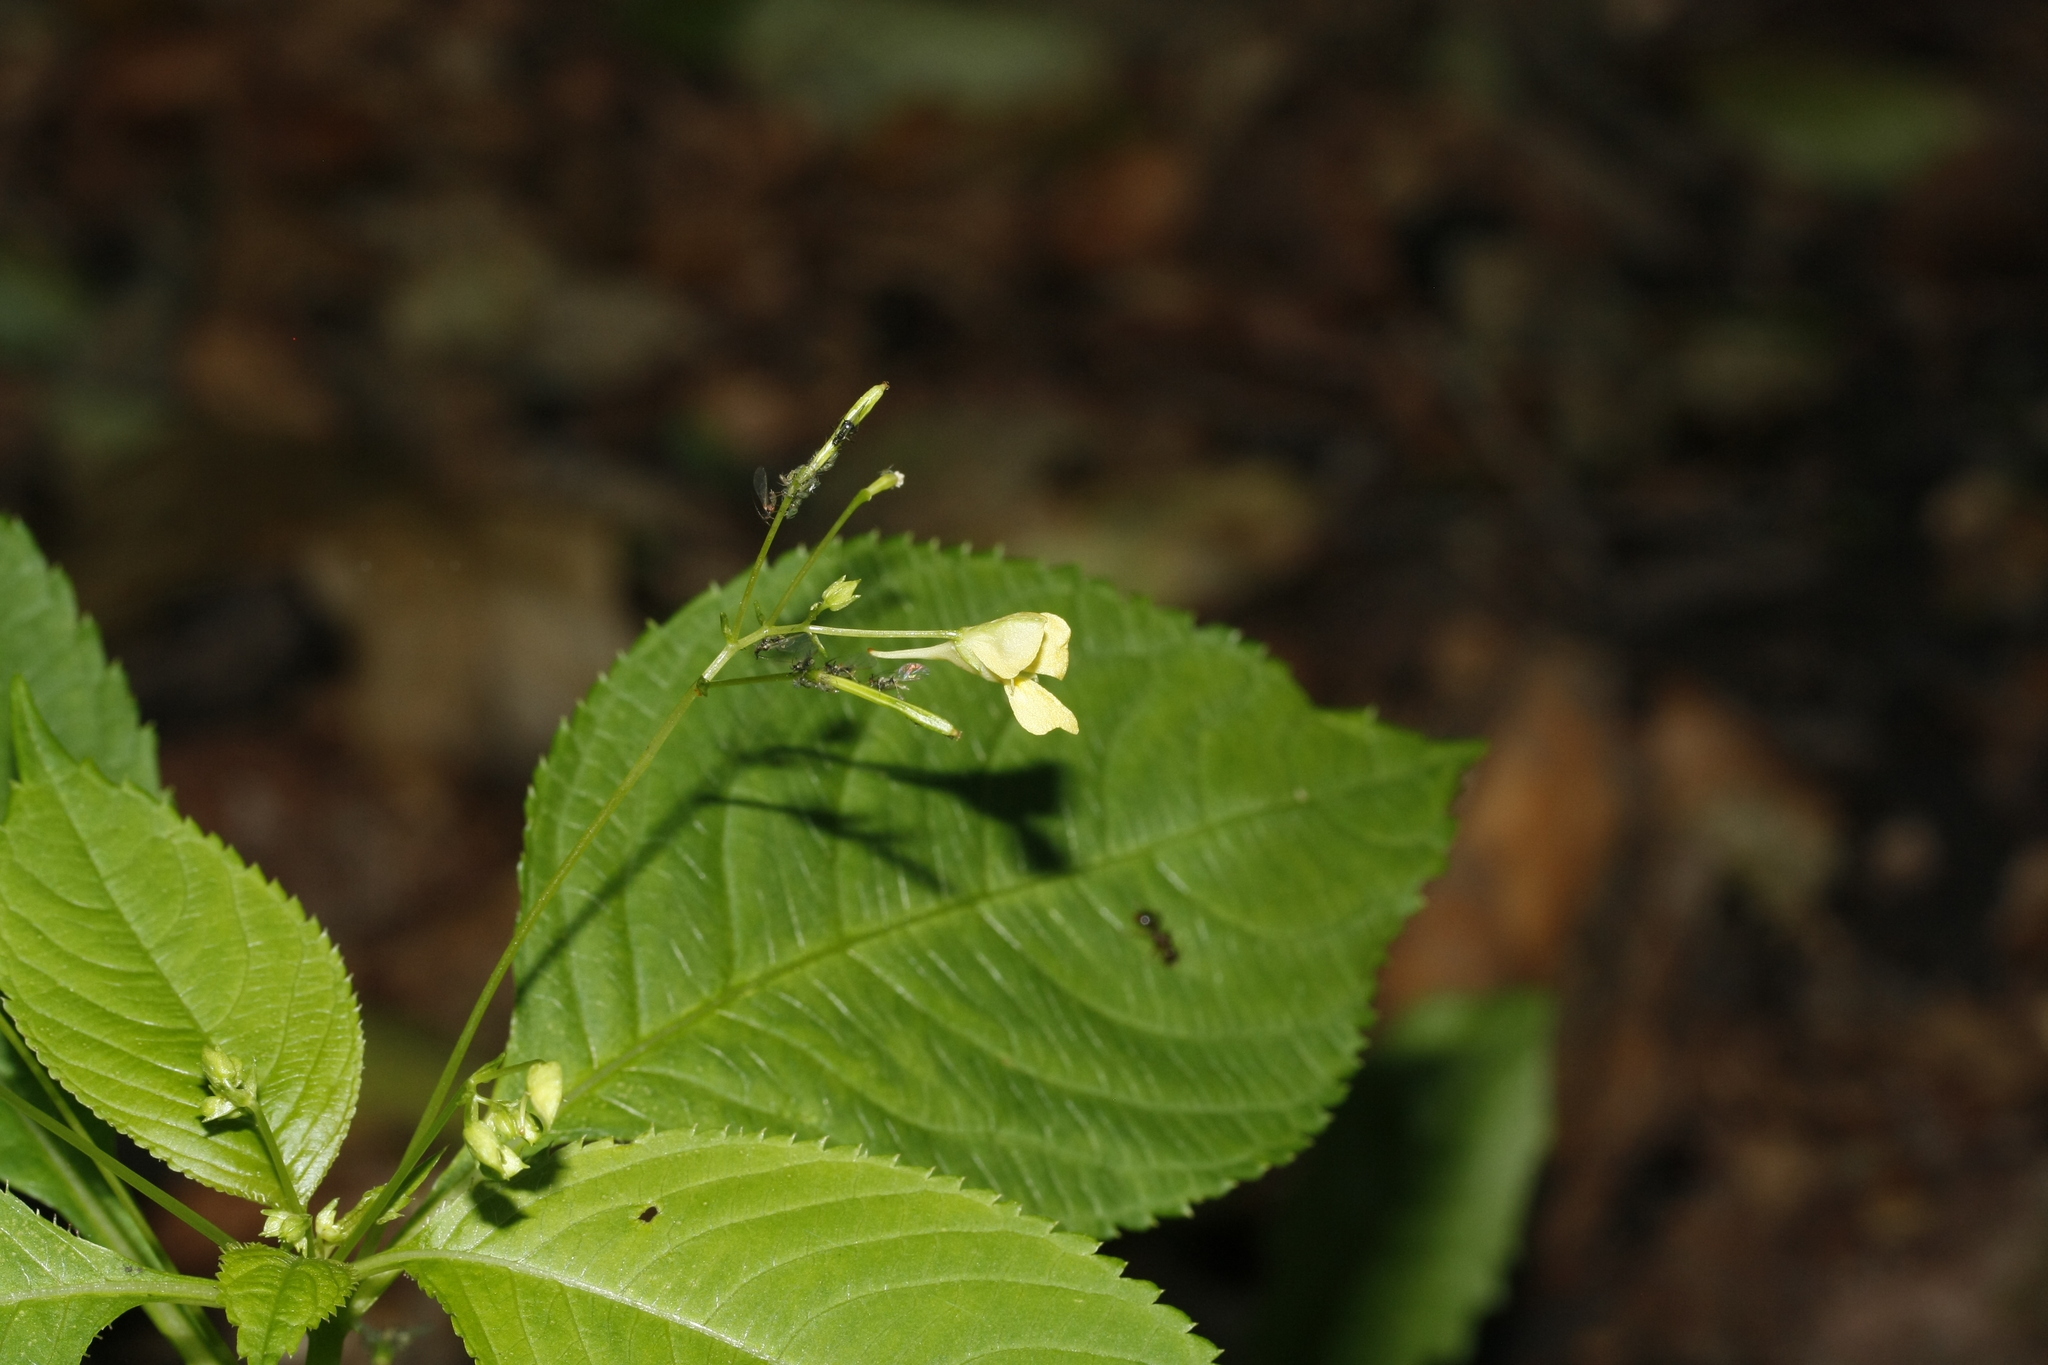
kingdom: Plantae
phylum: Tracheophyta
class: Magnoliopsida
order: Ericales
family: Balsaminaceae
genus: Impatiens
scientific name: Impatiens parviflora
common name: Small balsam
